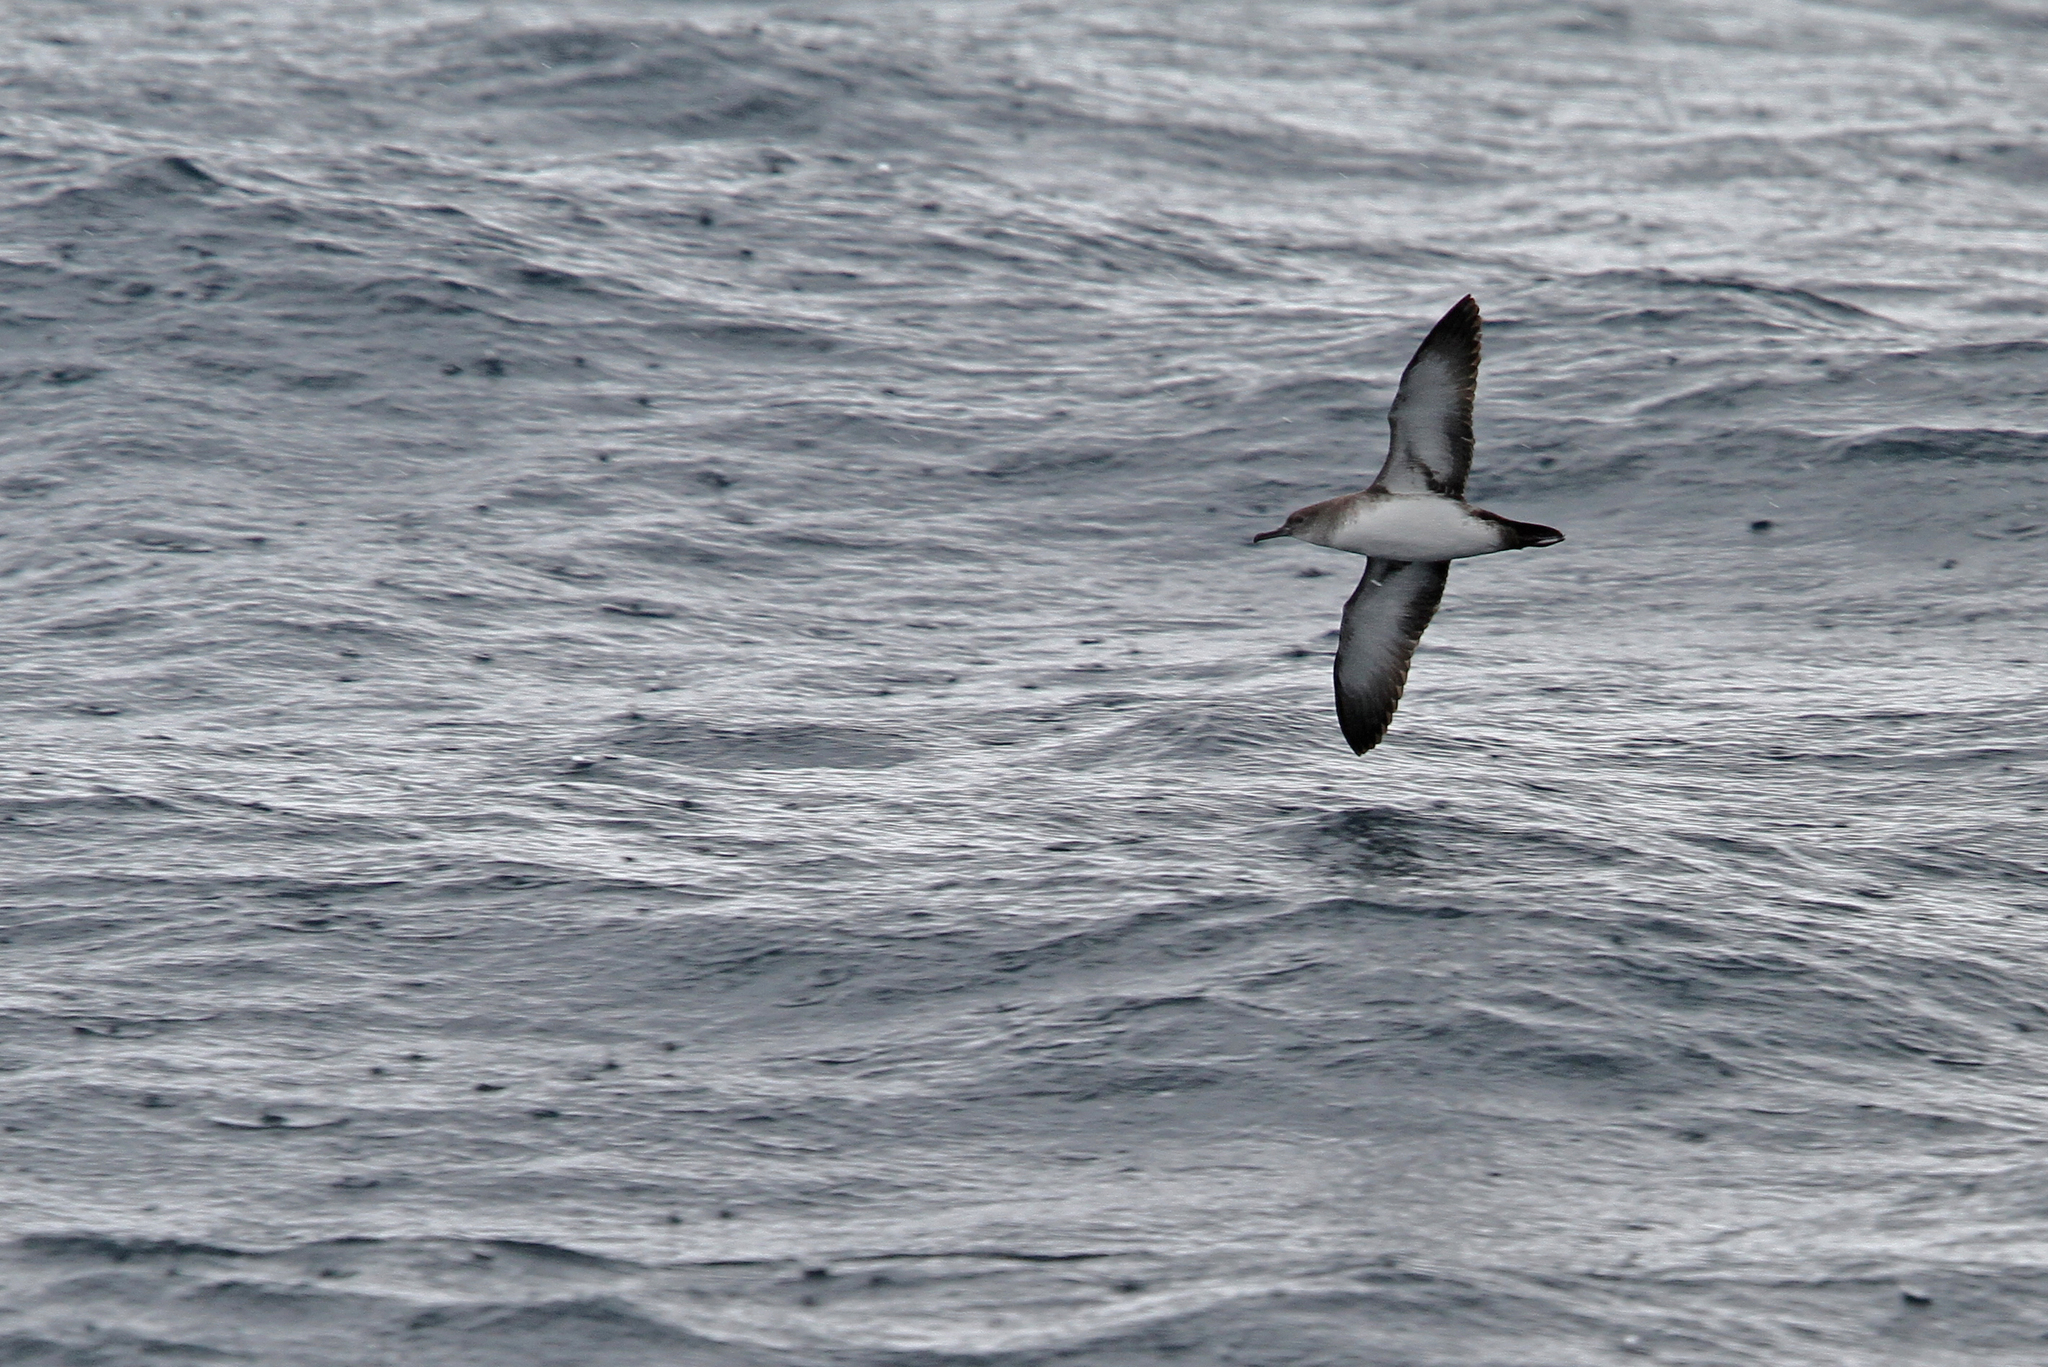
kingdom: Animalia
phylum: Chordata
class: Aves
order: Procellariiformes
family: Procellariidae
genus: Puffinus
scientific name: Puffinus opisthomelas
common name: Black-vented shearwater
